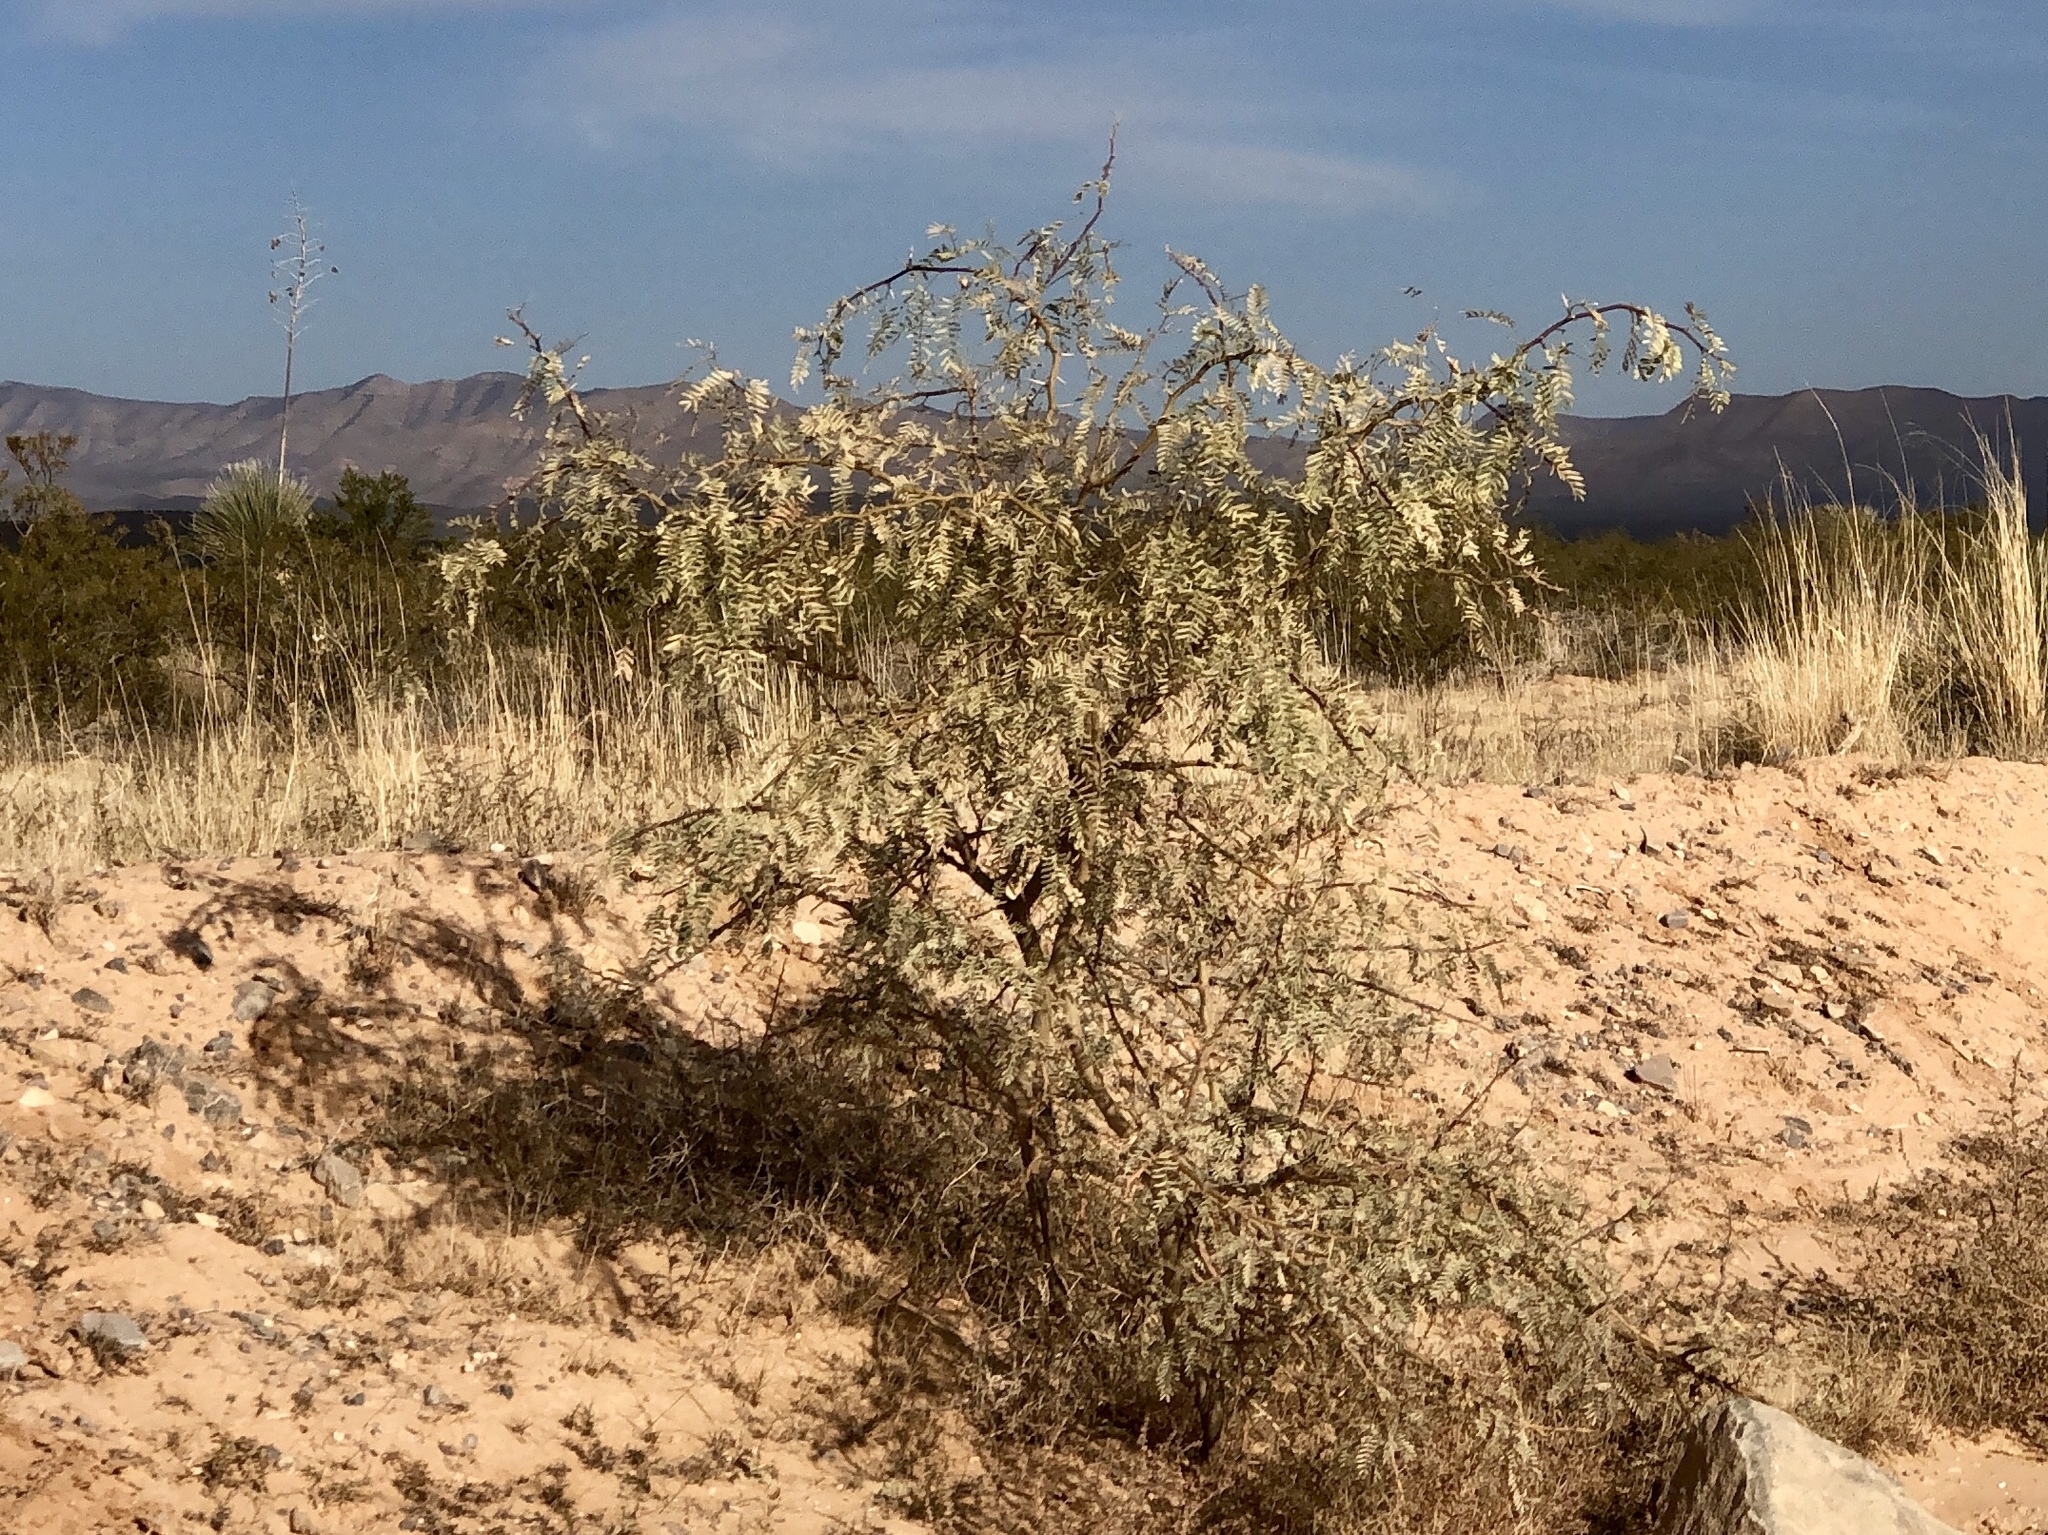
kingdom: Plantae
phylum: Tracheophyta
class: Magnoliopsida
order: Fabales
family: Fabaceae
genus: Prosopis
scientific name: Prosopis glandulosa
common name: Honey mesquite
